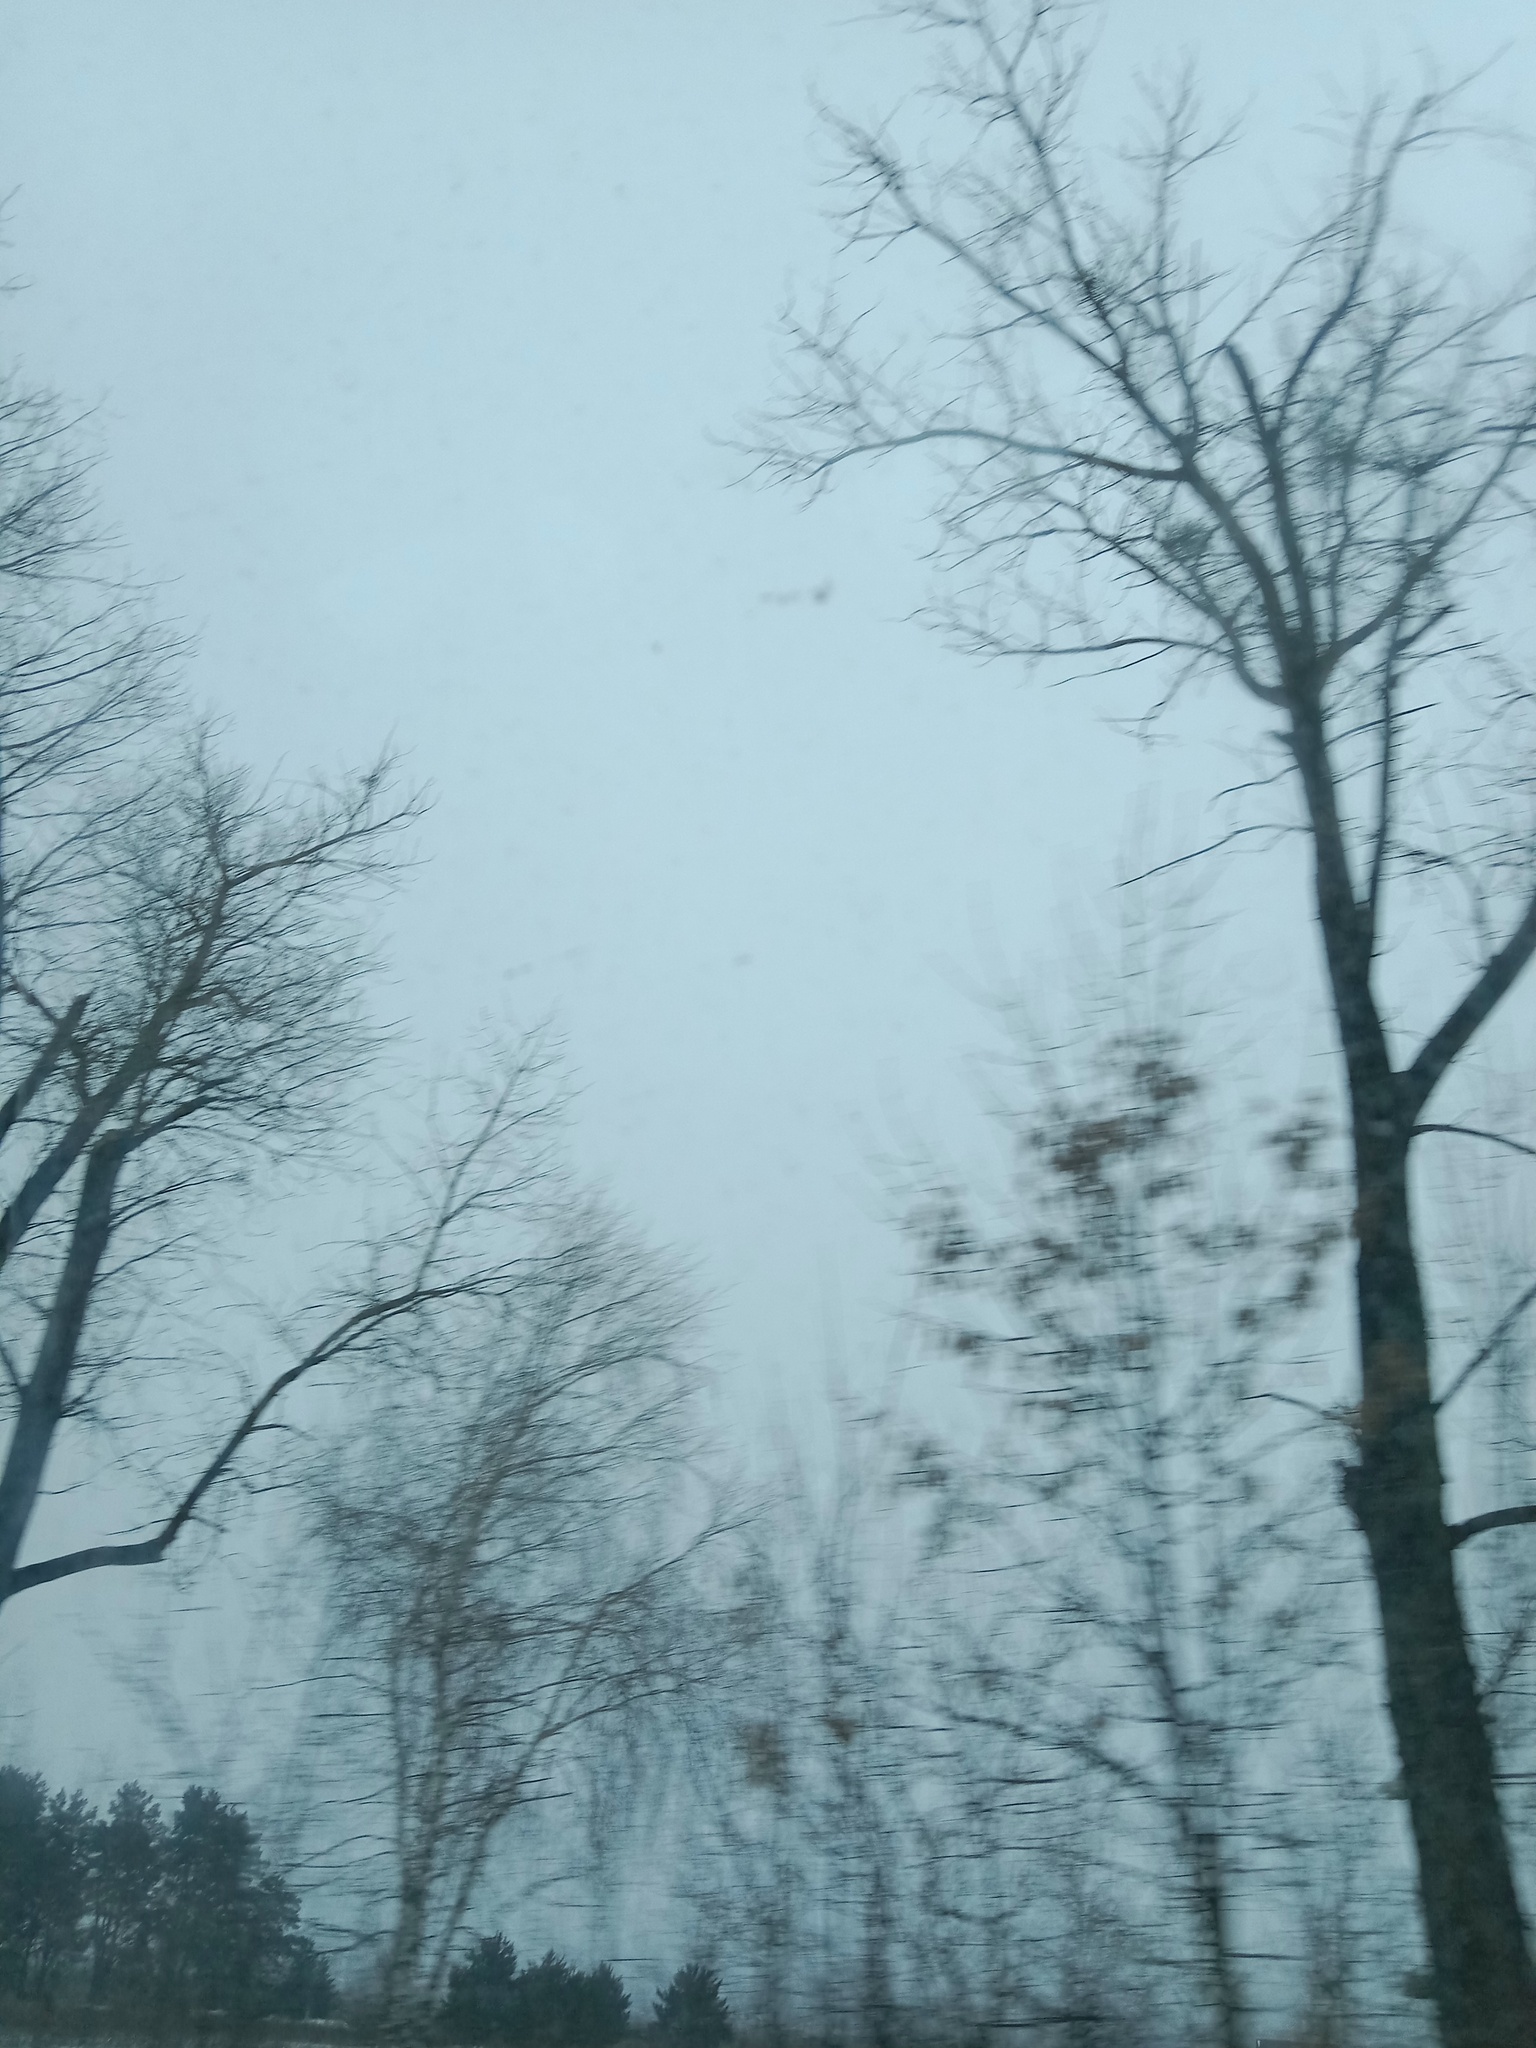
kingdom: Plantae
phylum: Tracheophyta
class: Magnoliopsida
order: Santalales
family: Viscaceae
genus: Viscum
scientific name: Viscum album
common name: Mistletoe
